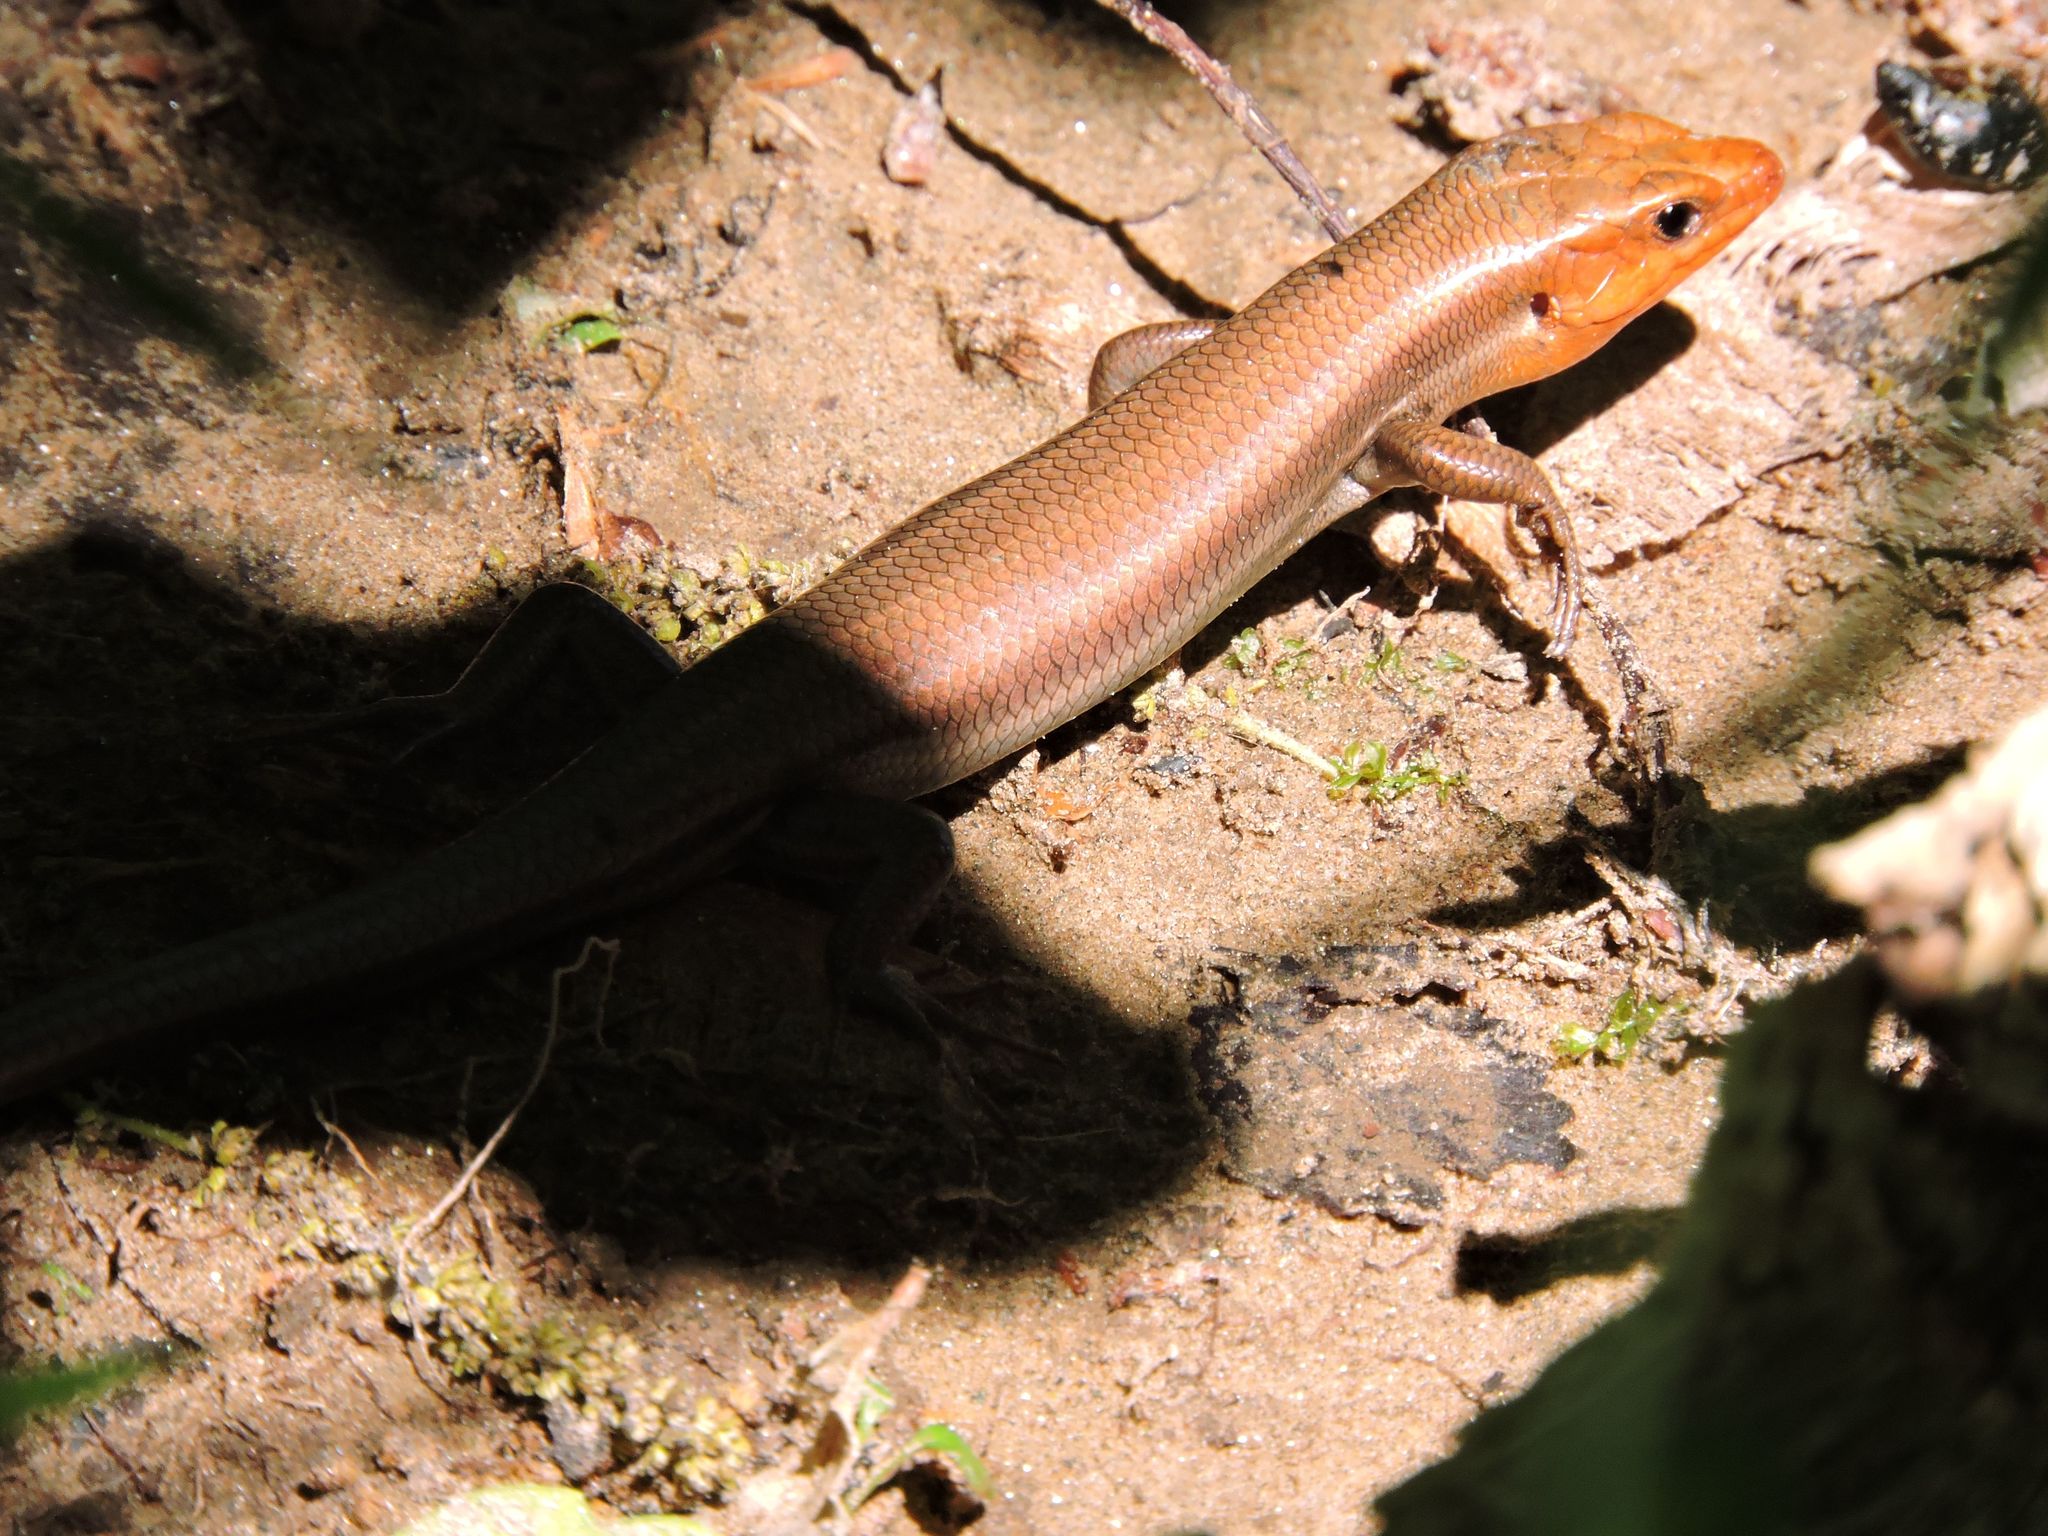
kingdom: Animalia
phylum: Chordata
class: Squamata
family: Scincidae
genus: Plestiodon
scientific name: Plestiodon fasciatus
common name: Five-lined skink
